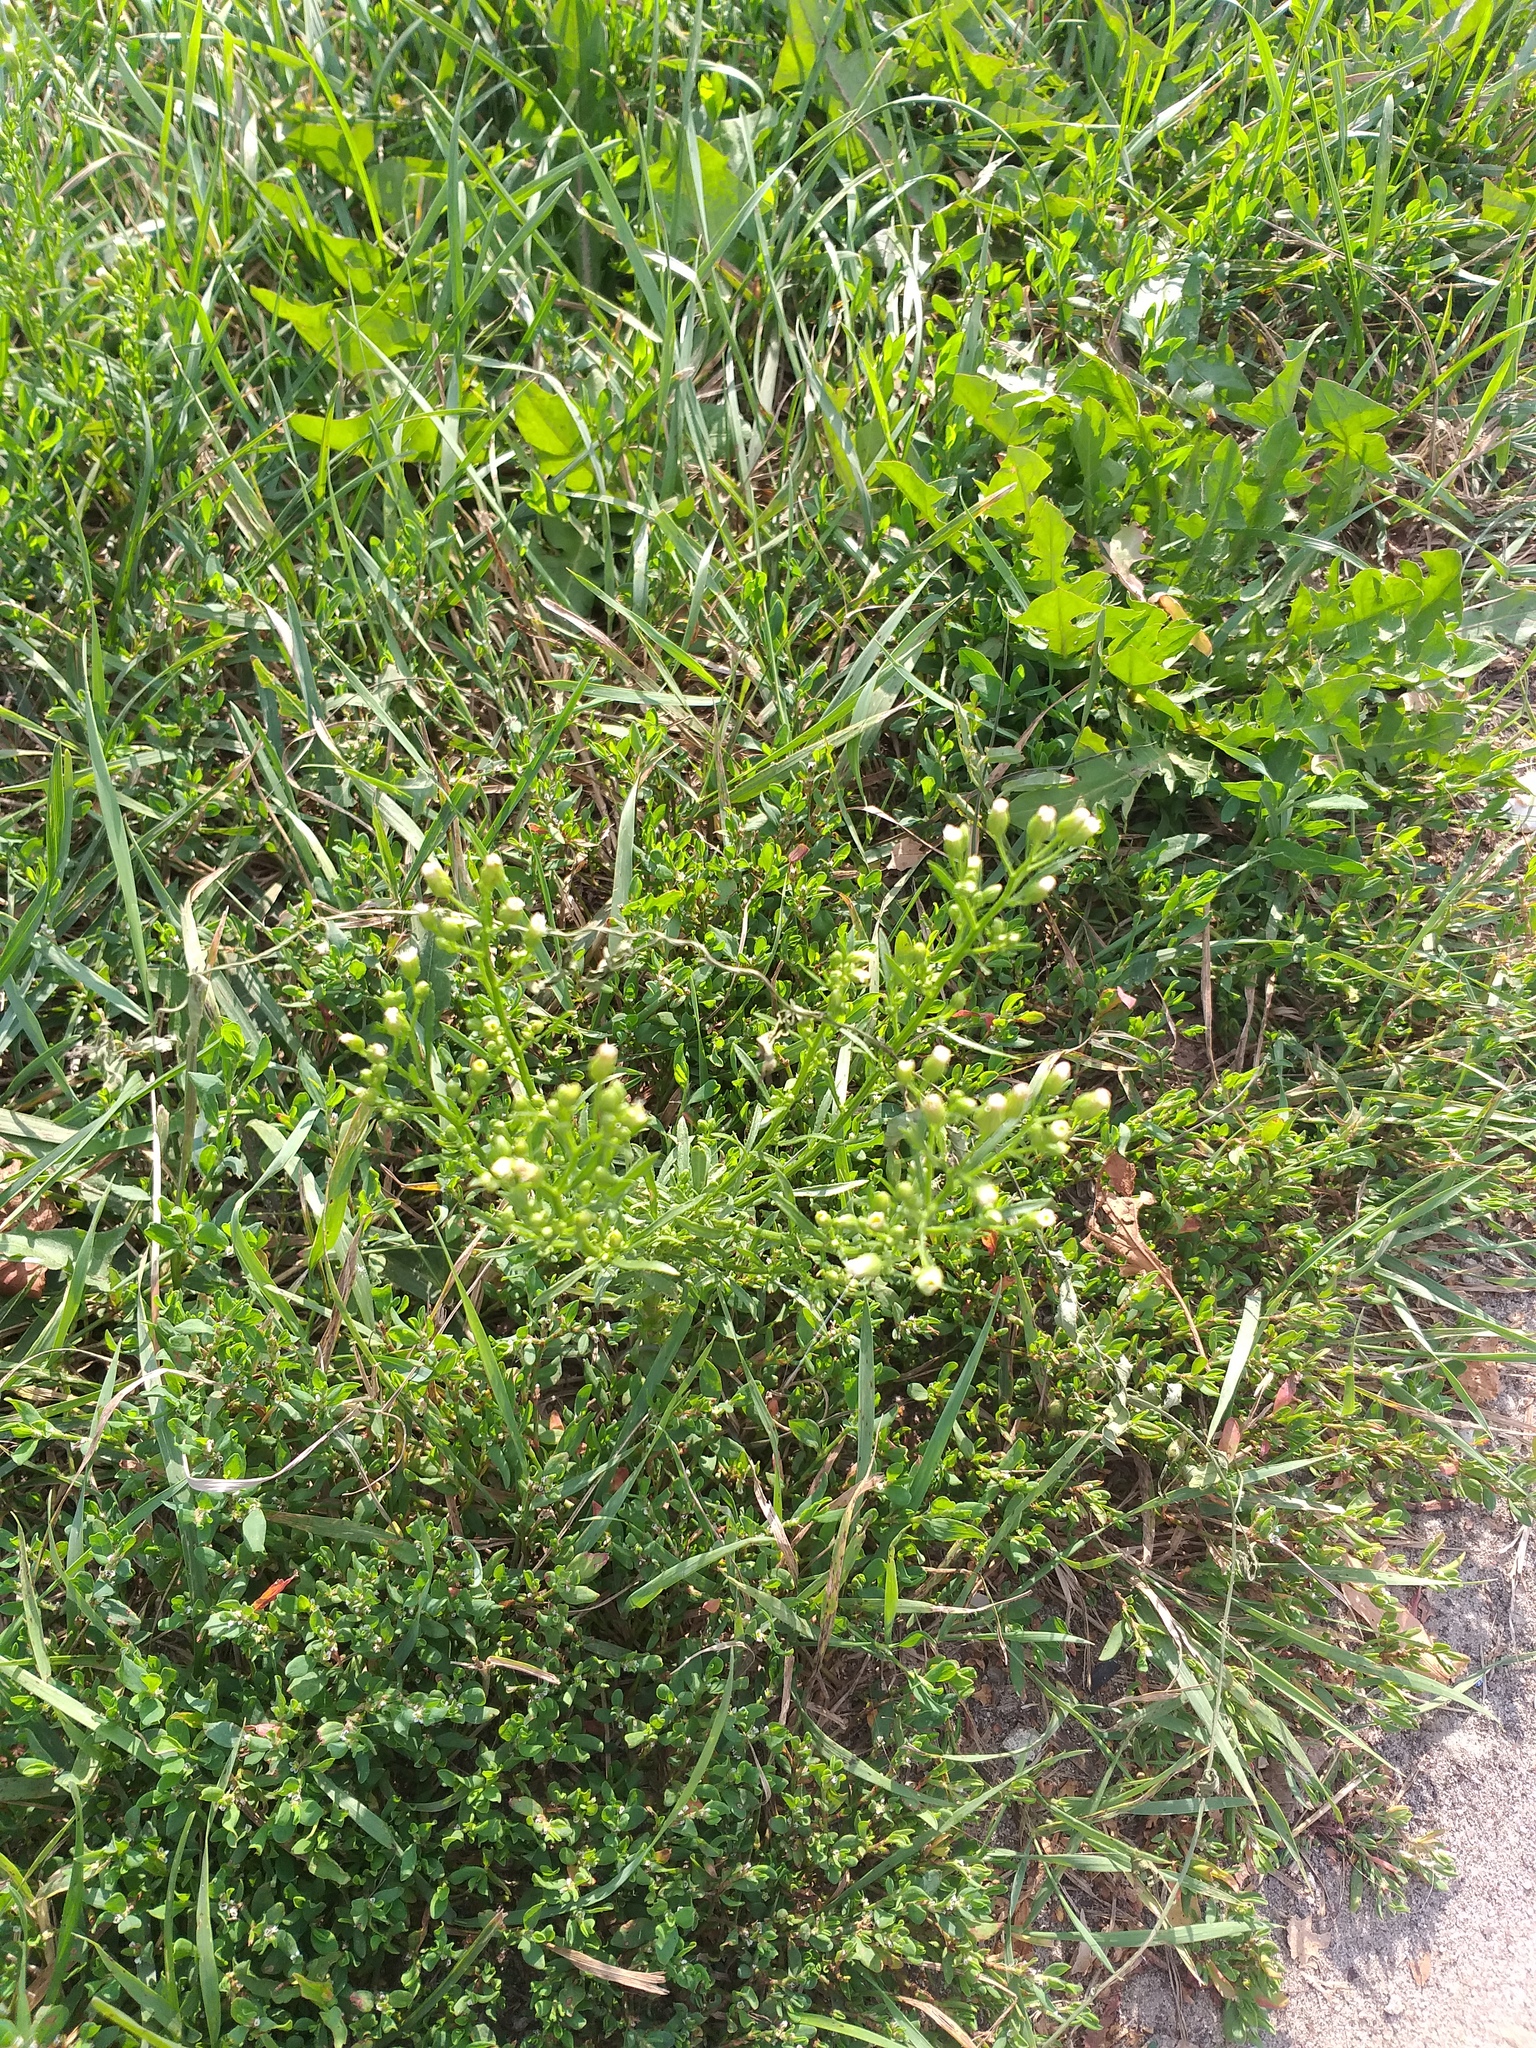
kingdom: Plantae
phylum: Tracheophyta
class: Magnoliopsida
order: Asterales
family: Asteraceae
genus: Erigeron
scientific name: Erigeron canadensis
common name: Canadian fleabane
